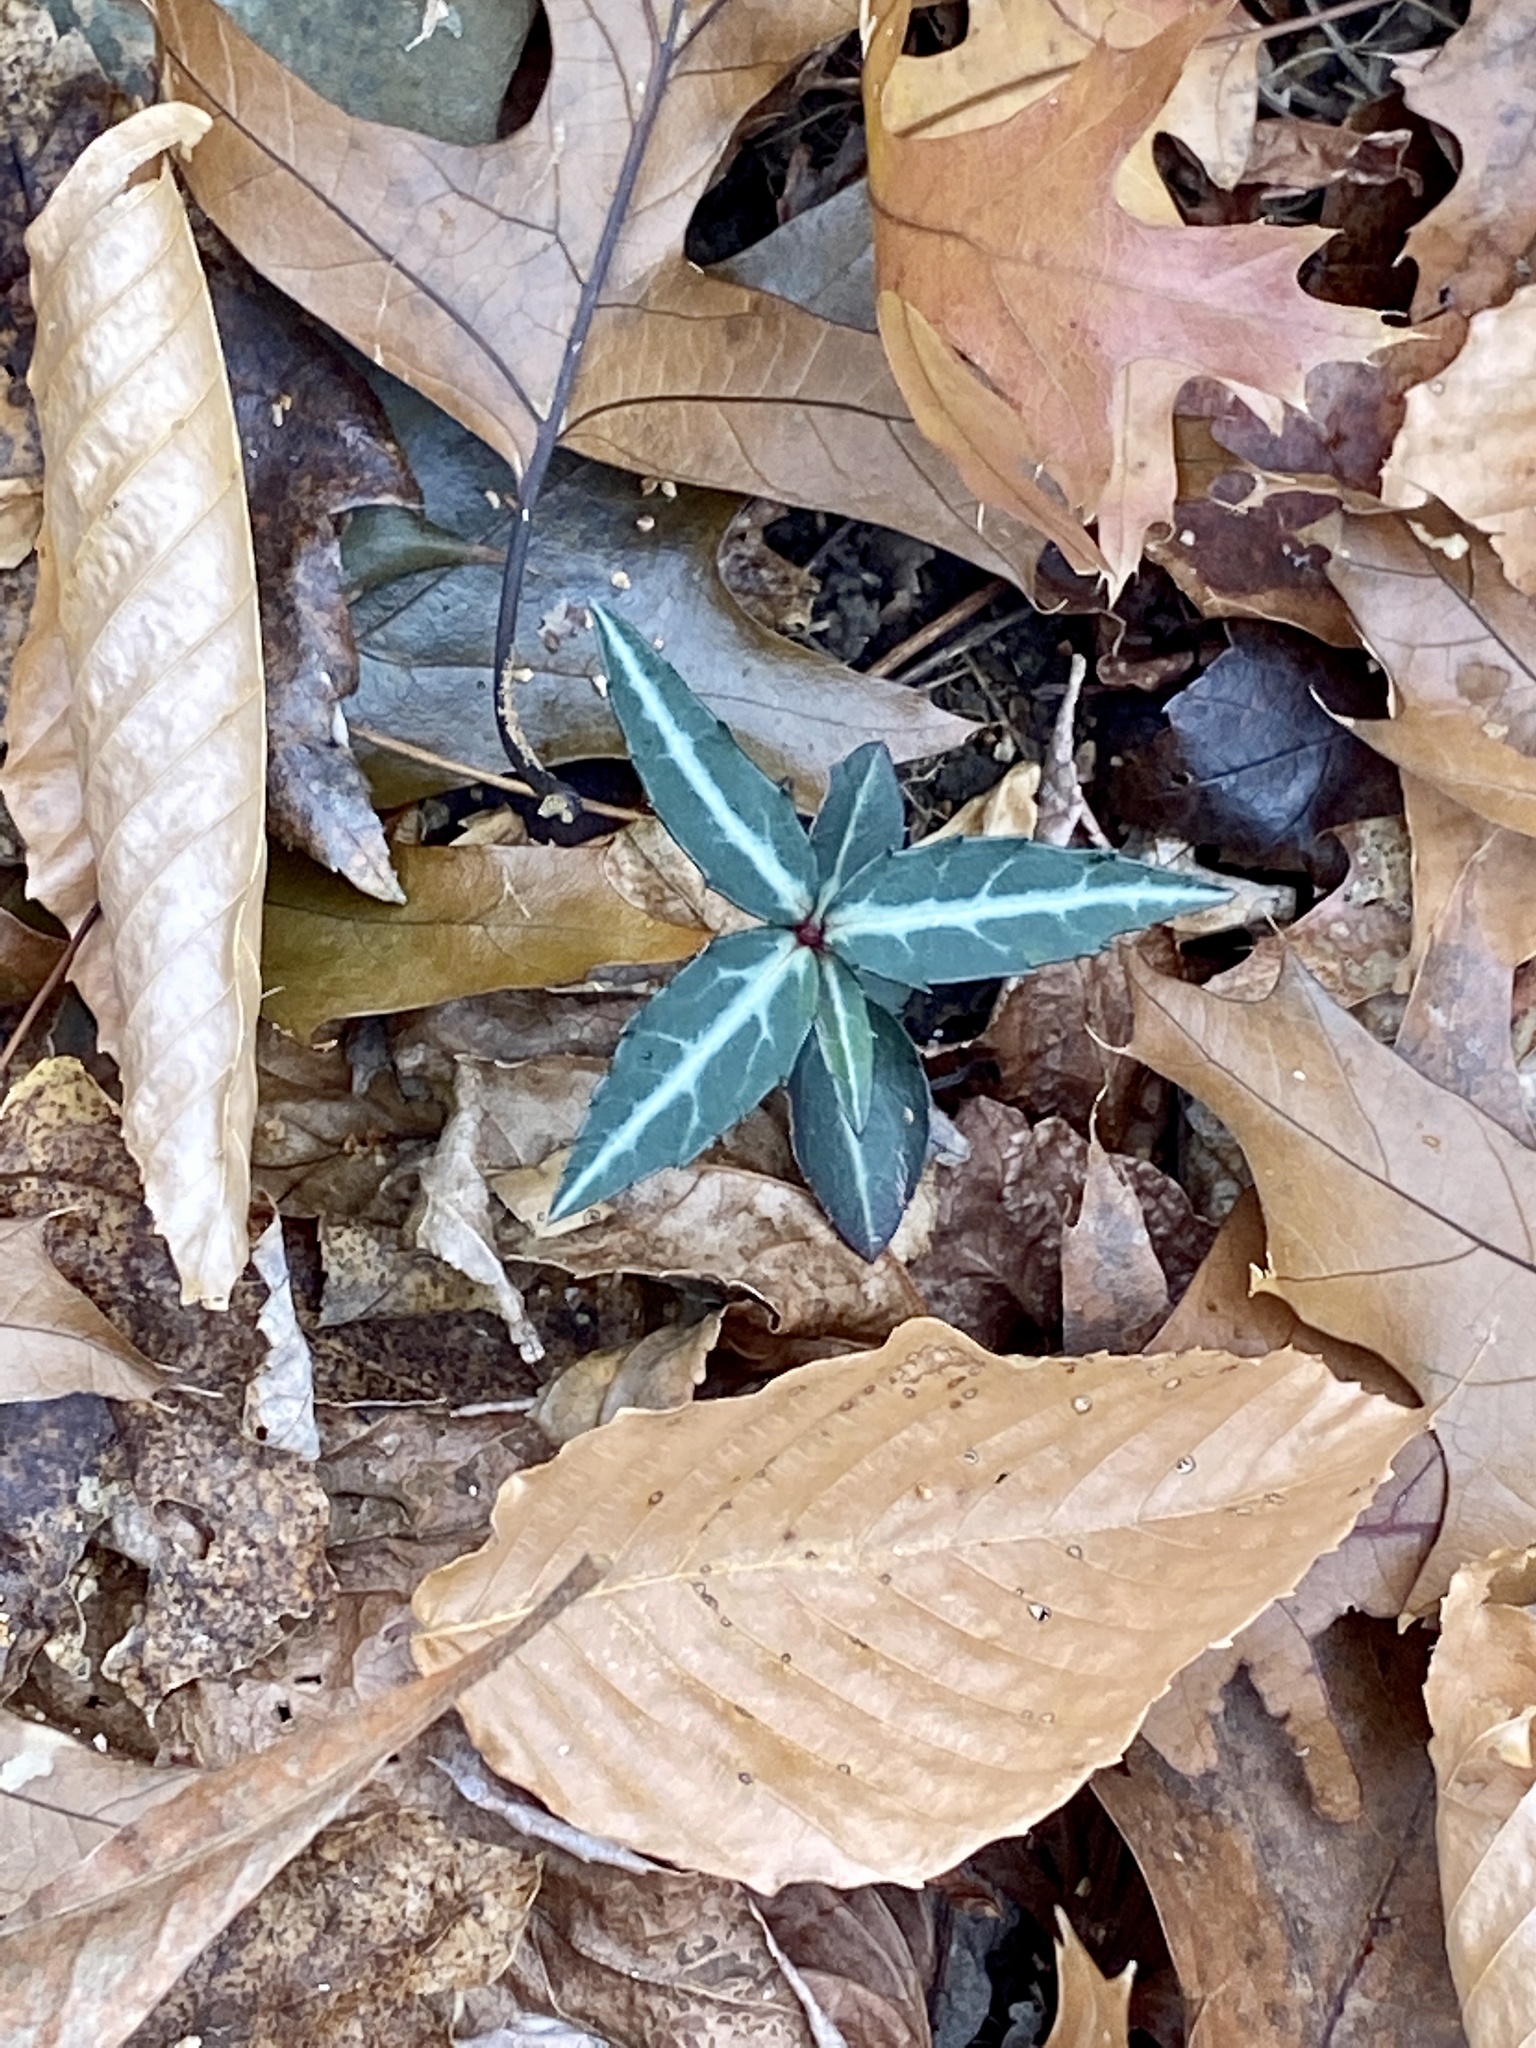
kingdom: Plantae
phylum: Tracheophyta
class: Magnoliopsida
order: Ericales
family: Ericaceae
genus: Chimaphila
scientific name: Chimaphila maculata
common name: Spotted pipsissewa
